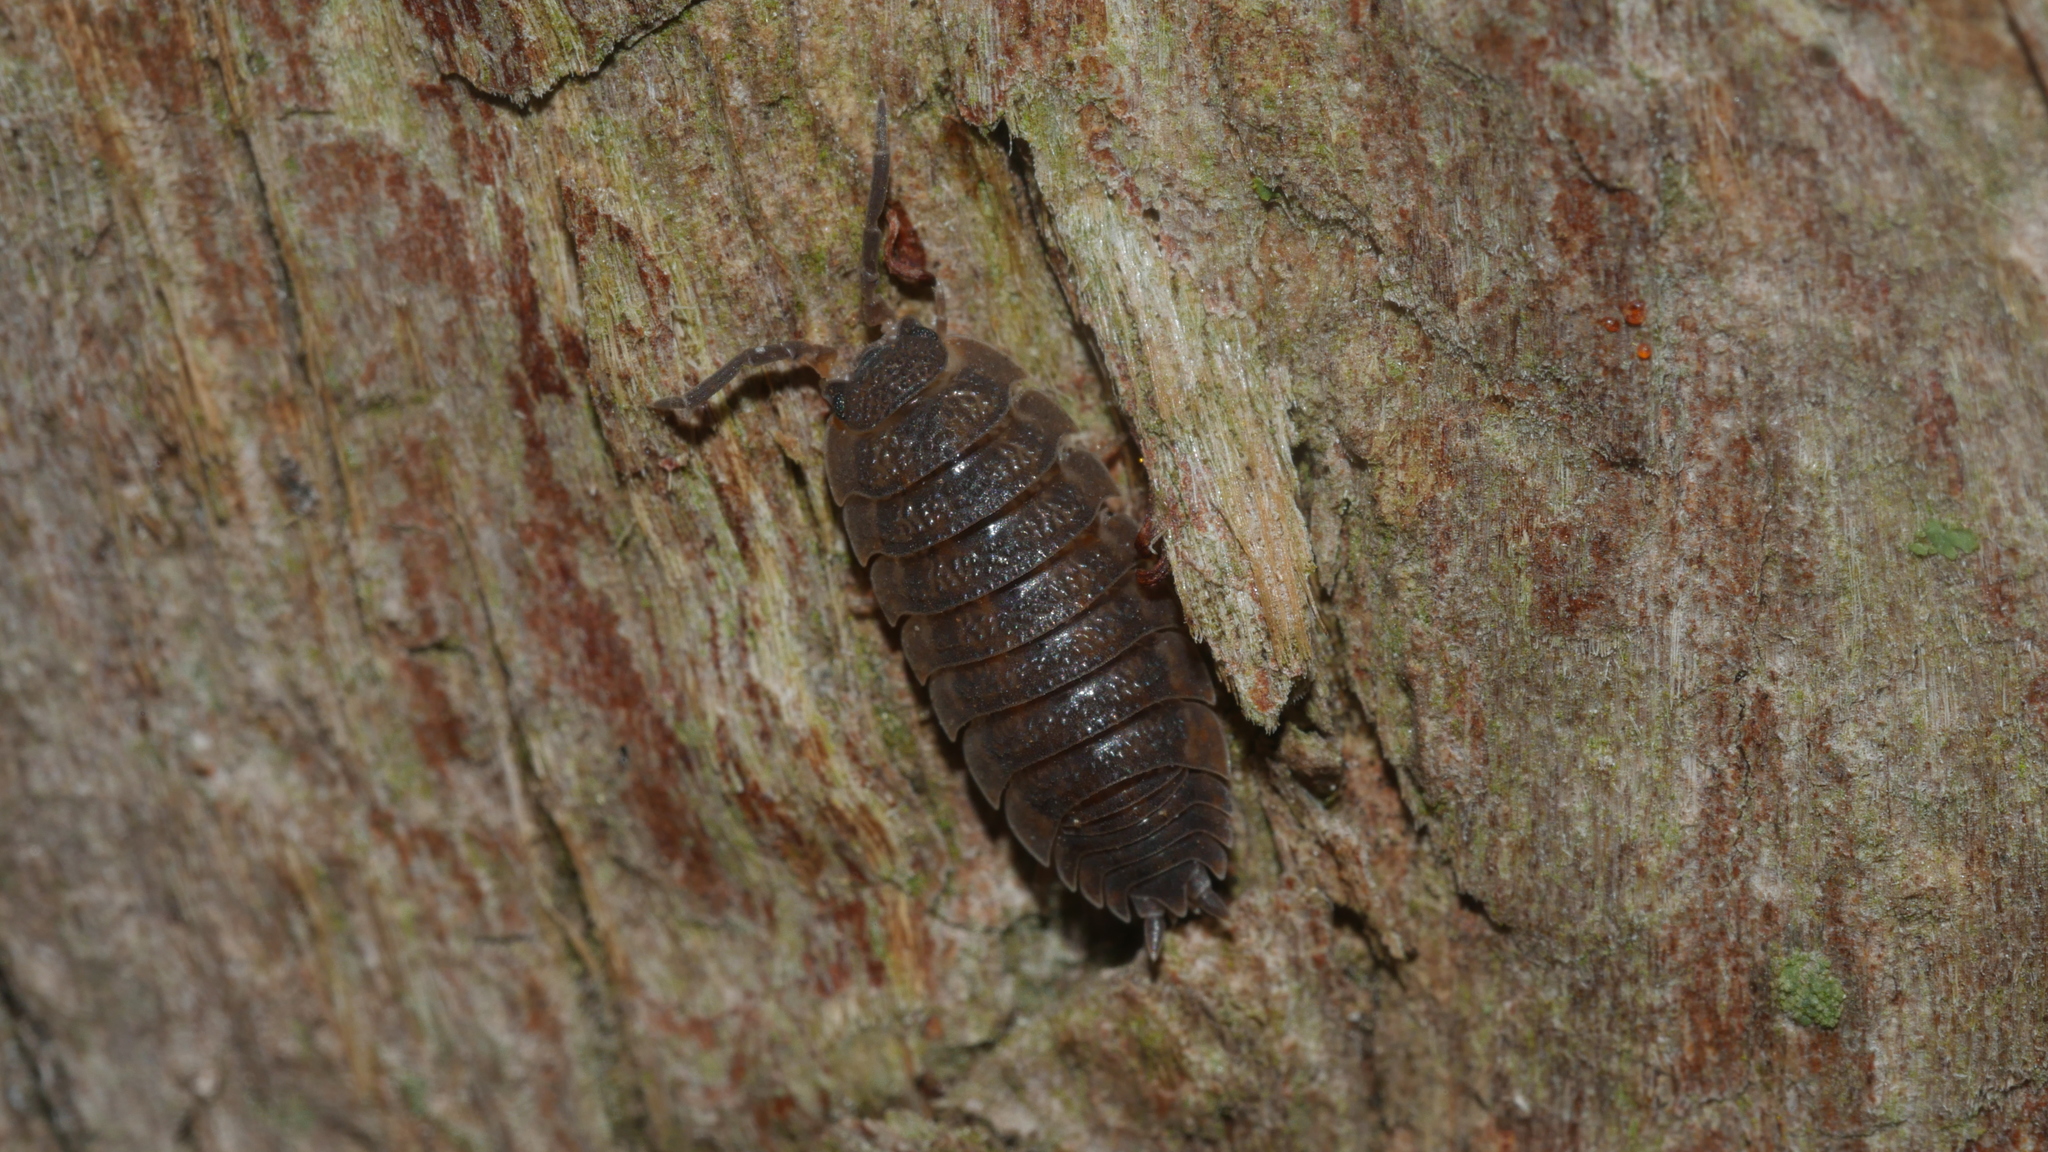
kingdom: Animalia
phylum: Arthropoda
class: Malacostraca
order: Isopoda
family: Porcellionidae
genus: Porcellio
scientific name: Porcellio scaber
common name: Common rough woodlouse
